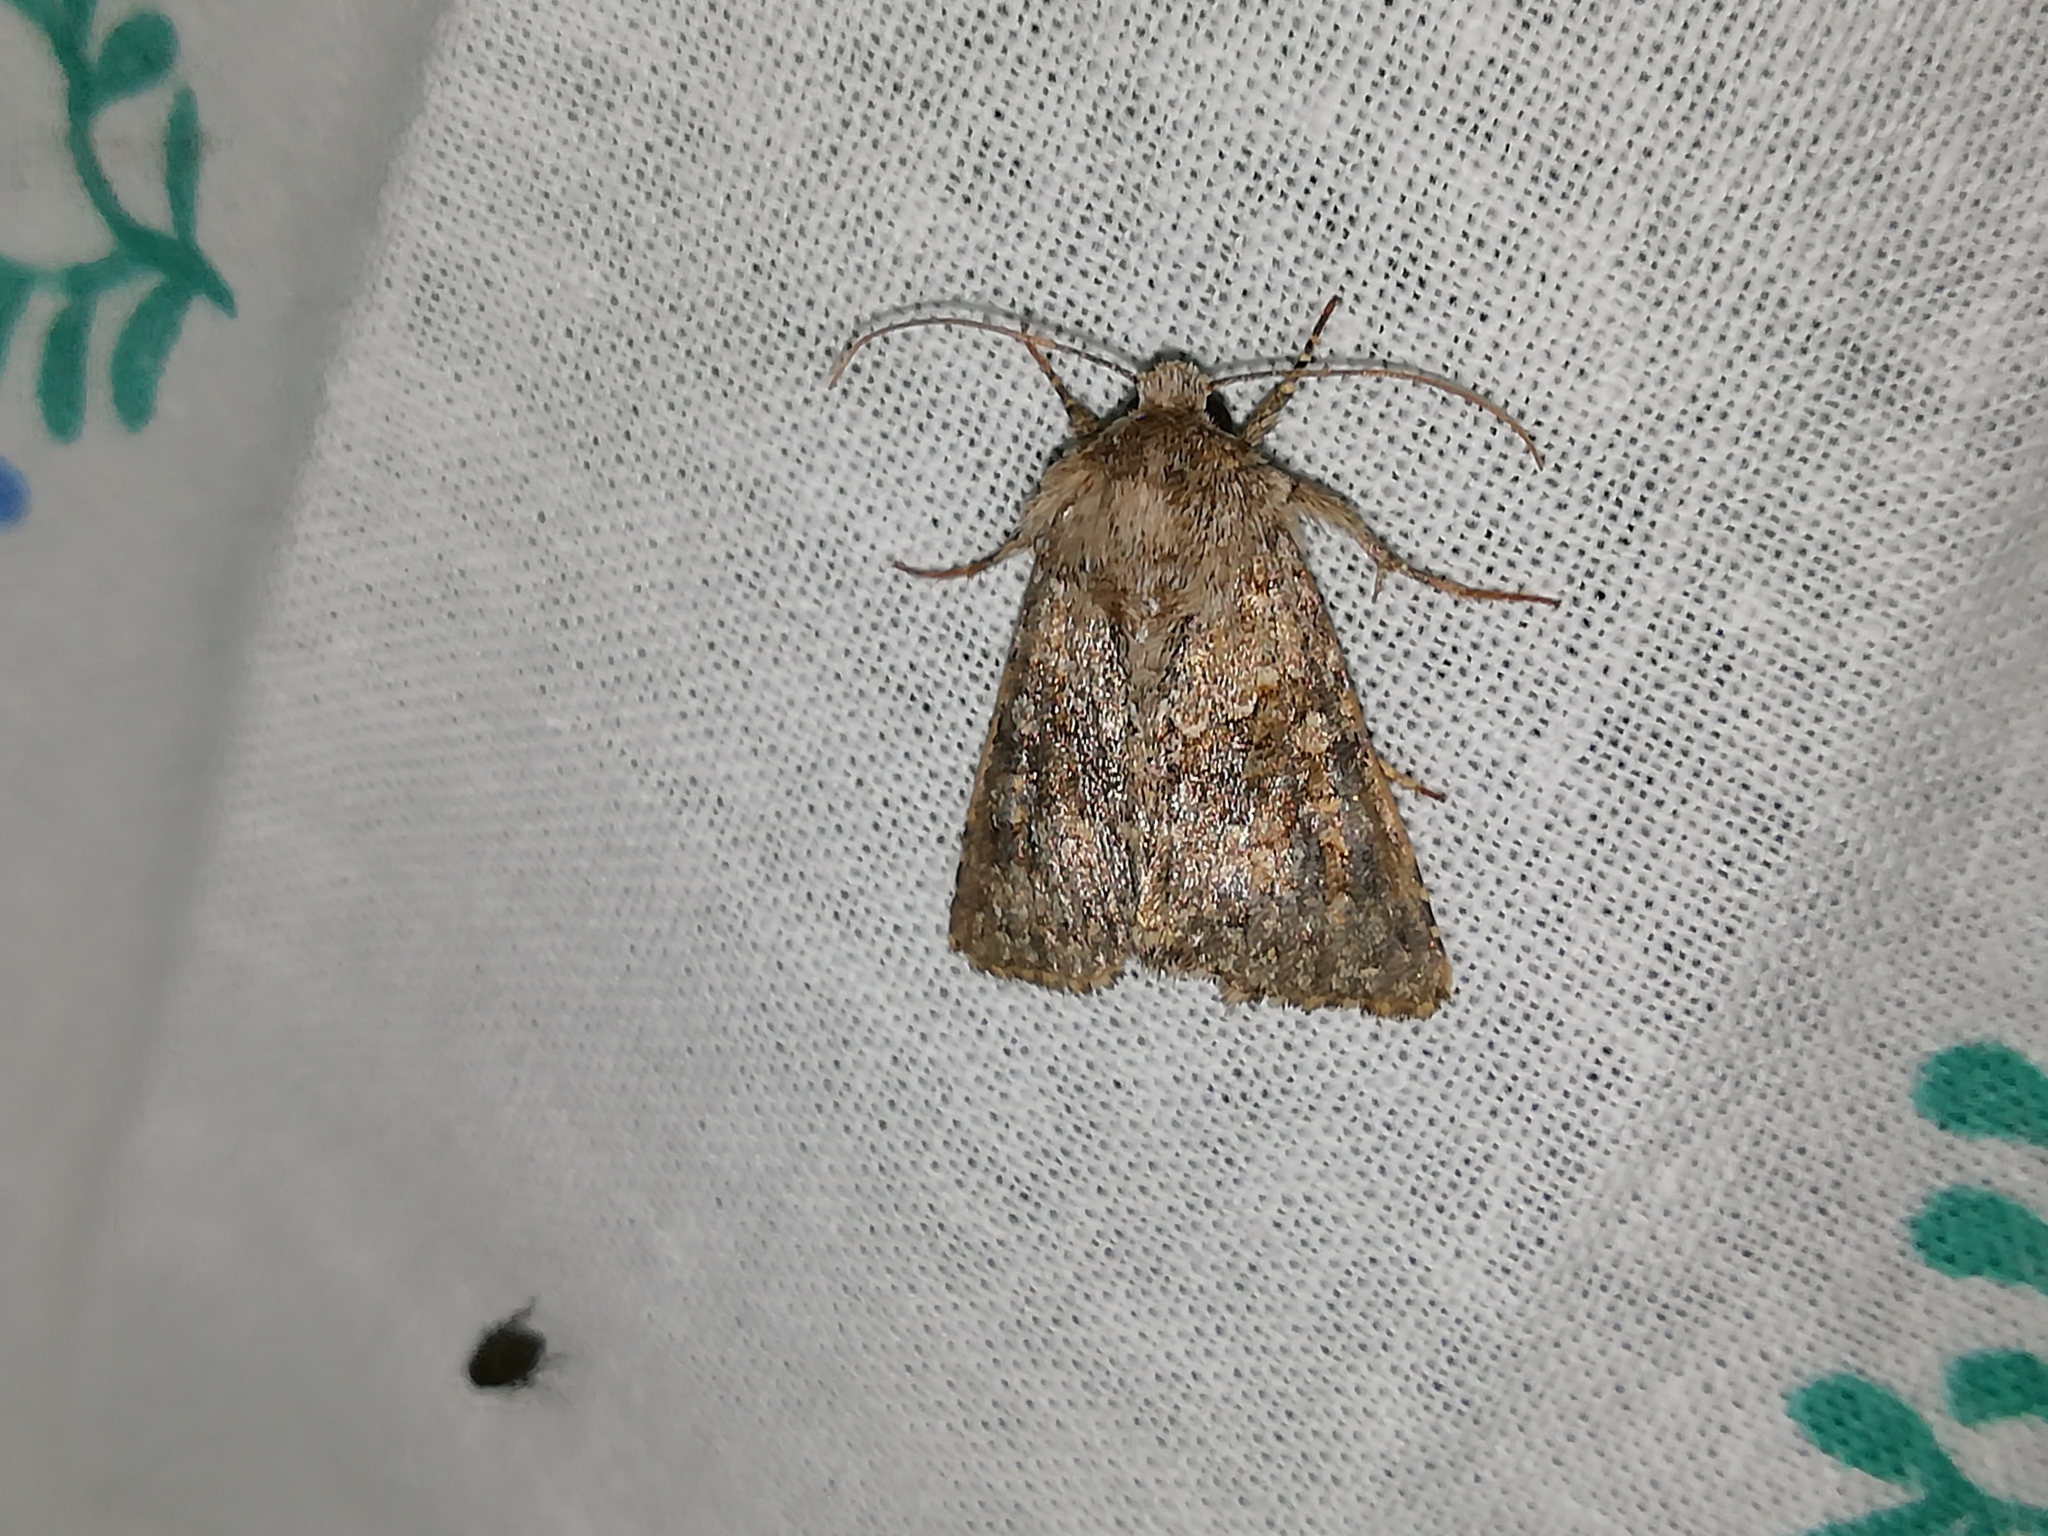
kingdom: Animalia
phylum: Arthropoda
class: Insecta
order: Lepidoptera
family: Noctuidae
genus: Hecatera
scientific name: Hecatera dysodea
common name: Small ranunculus
